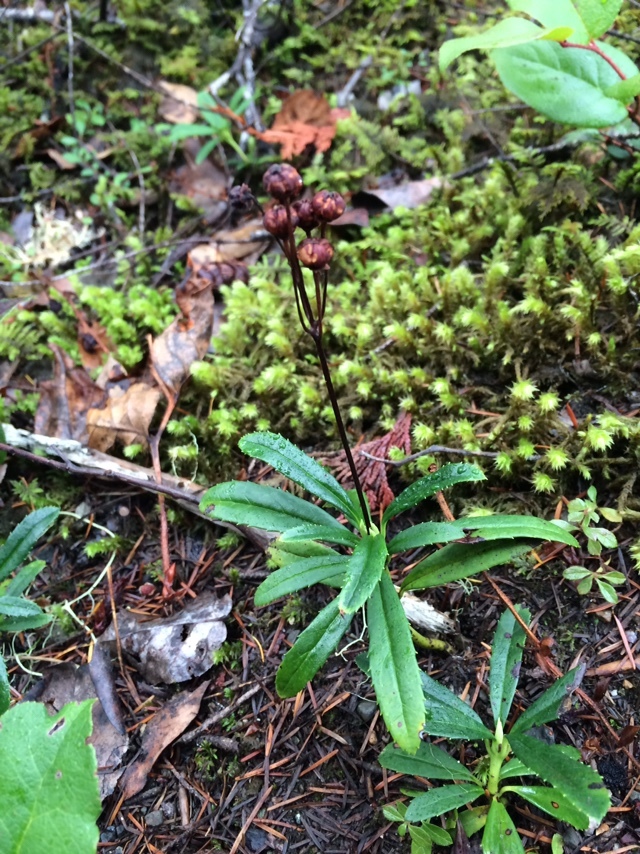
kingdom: Plantae
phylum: Tracheophyta
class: Magnoliopsida
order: Ericales
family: Ericaceae
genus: Chimaphila
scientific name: Chimaphila umbellata
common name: Pipsissewa
